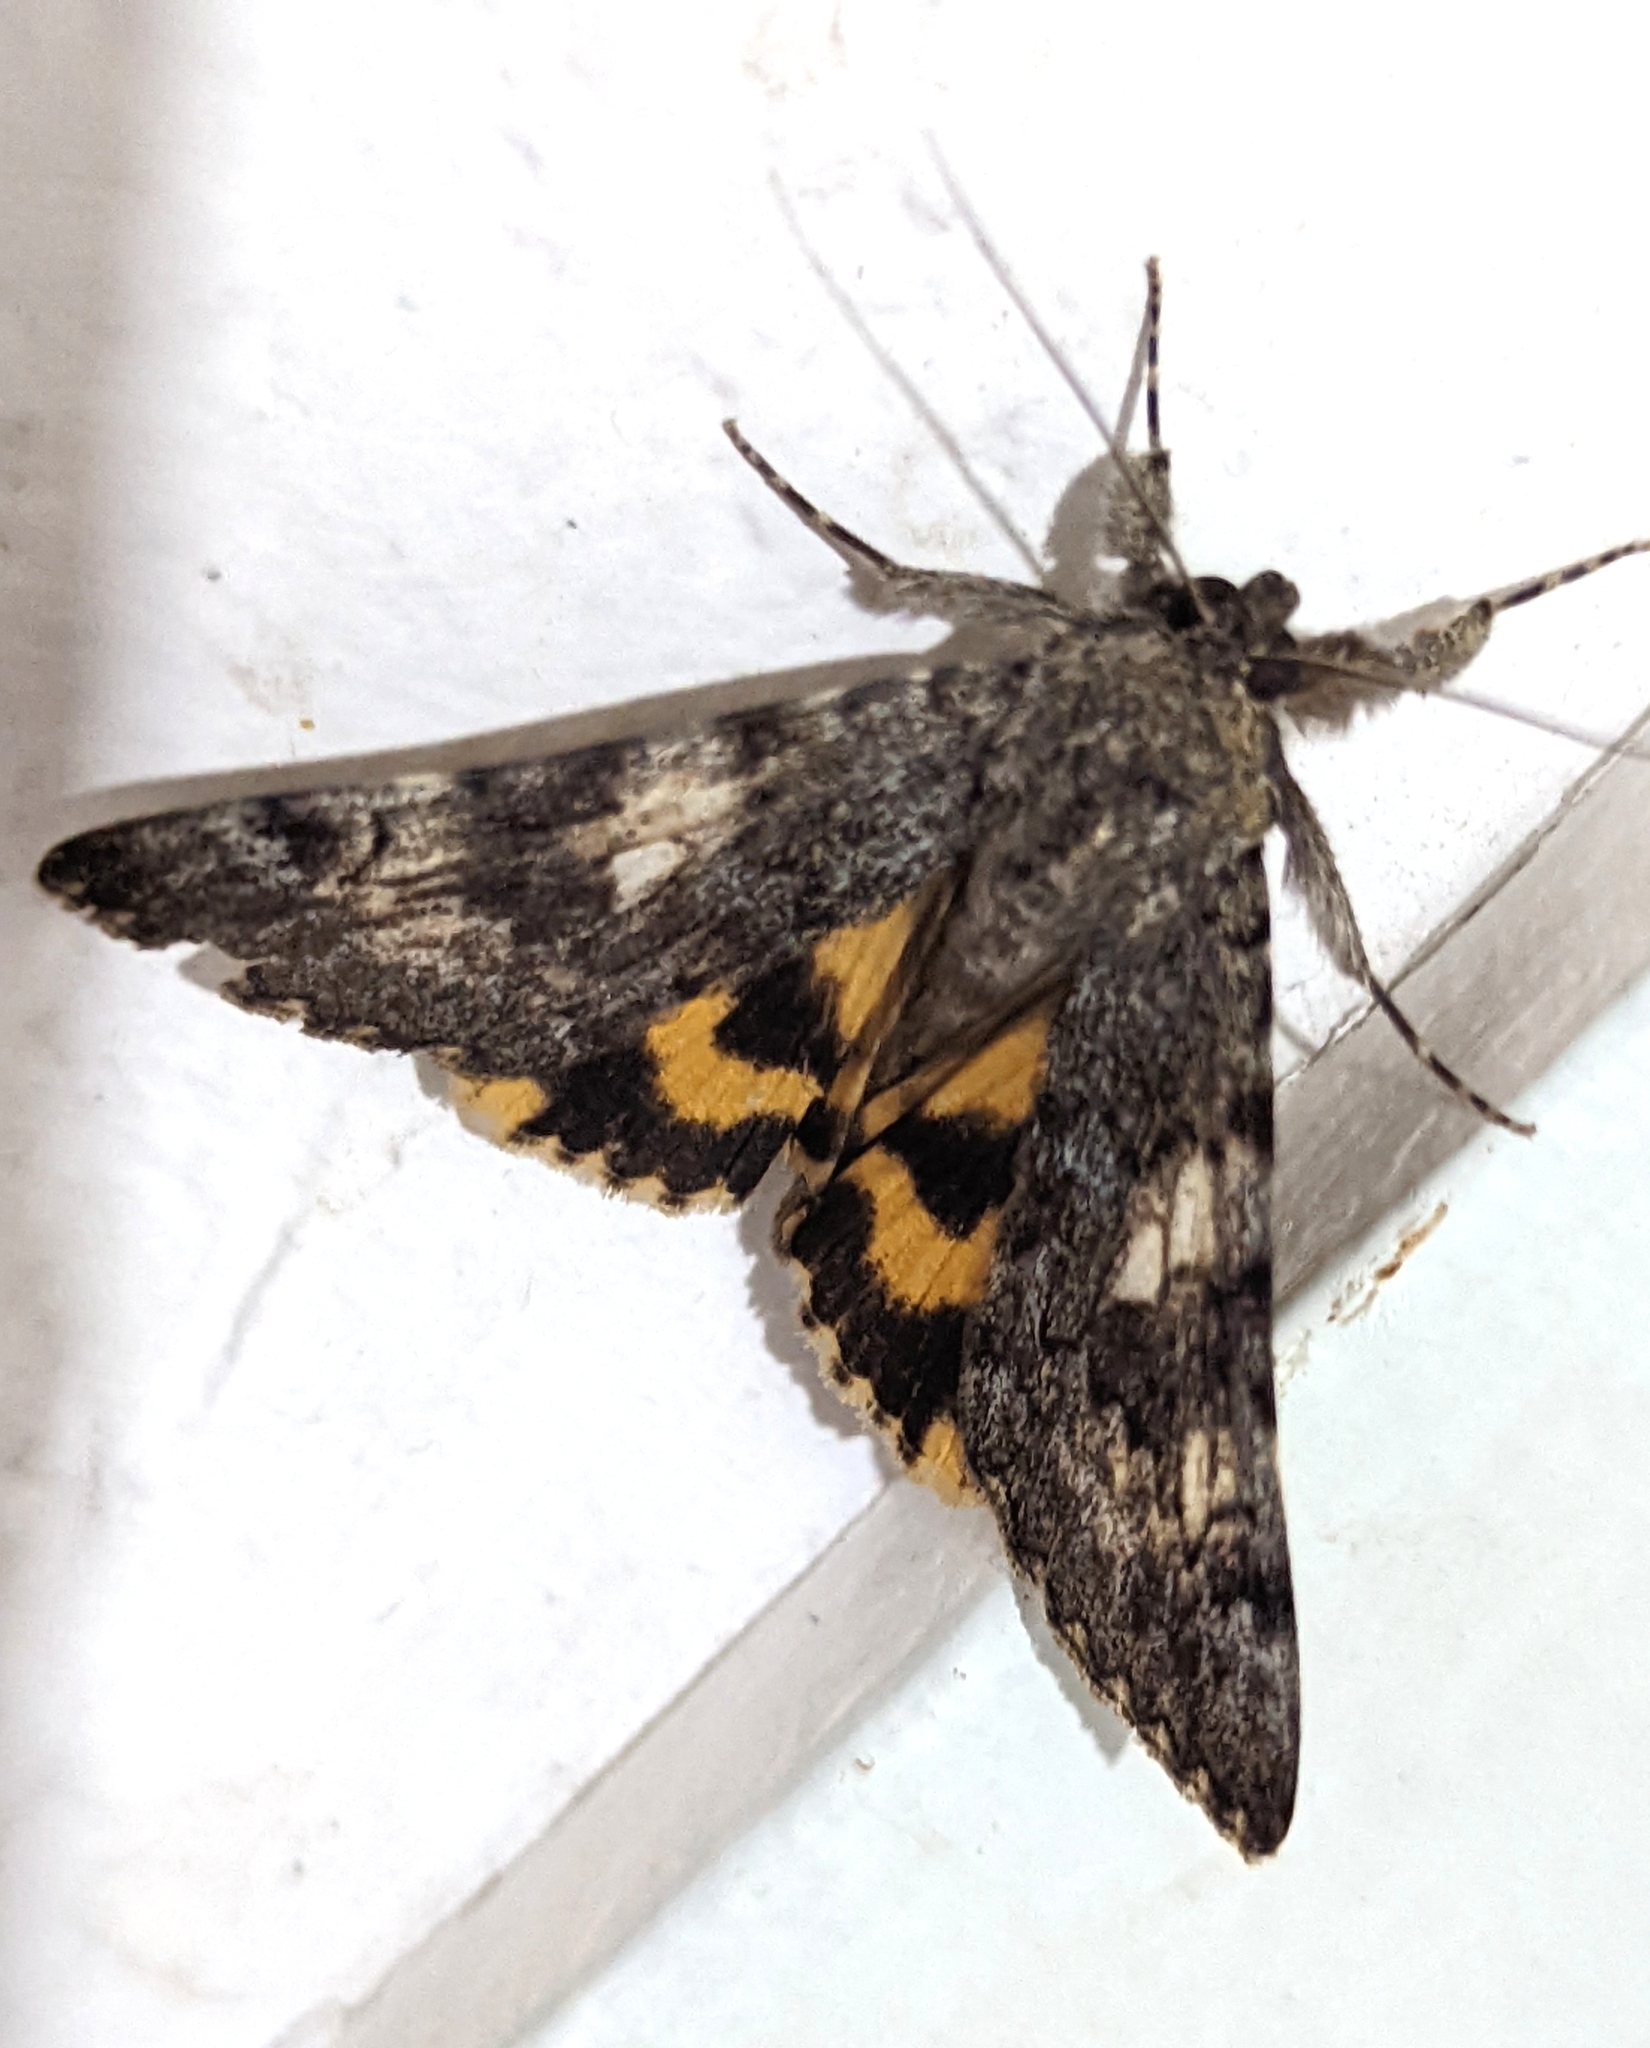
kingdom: Animalia
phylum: Arthropoda
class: Insecta
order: Lepidoptera
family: Erebidae
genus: Catocala
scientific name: Catocala nymphaea
